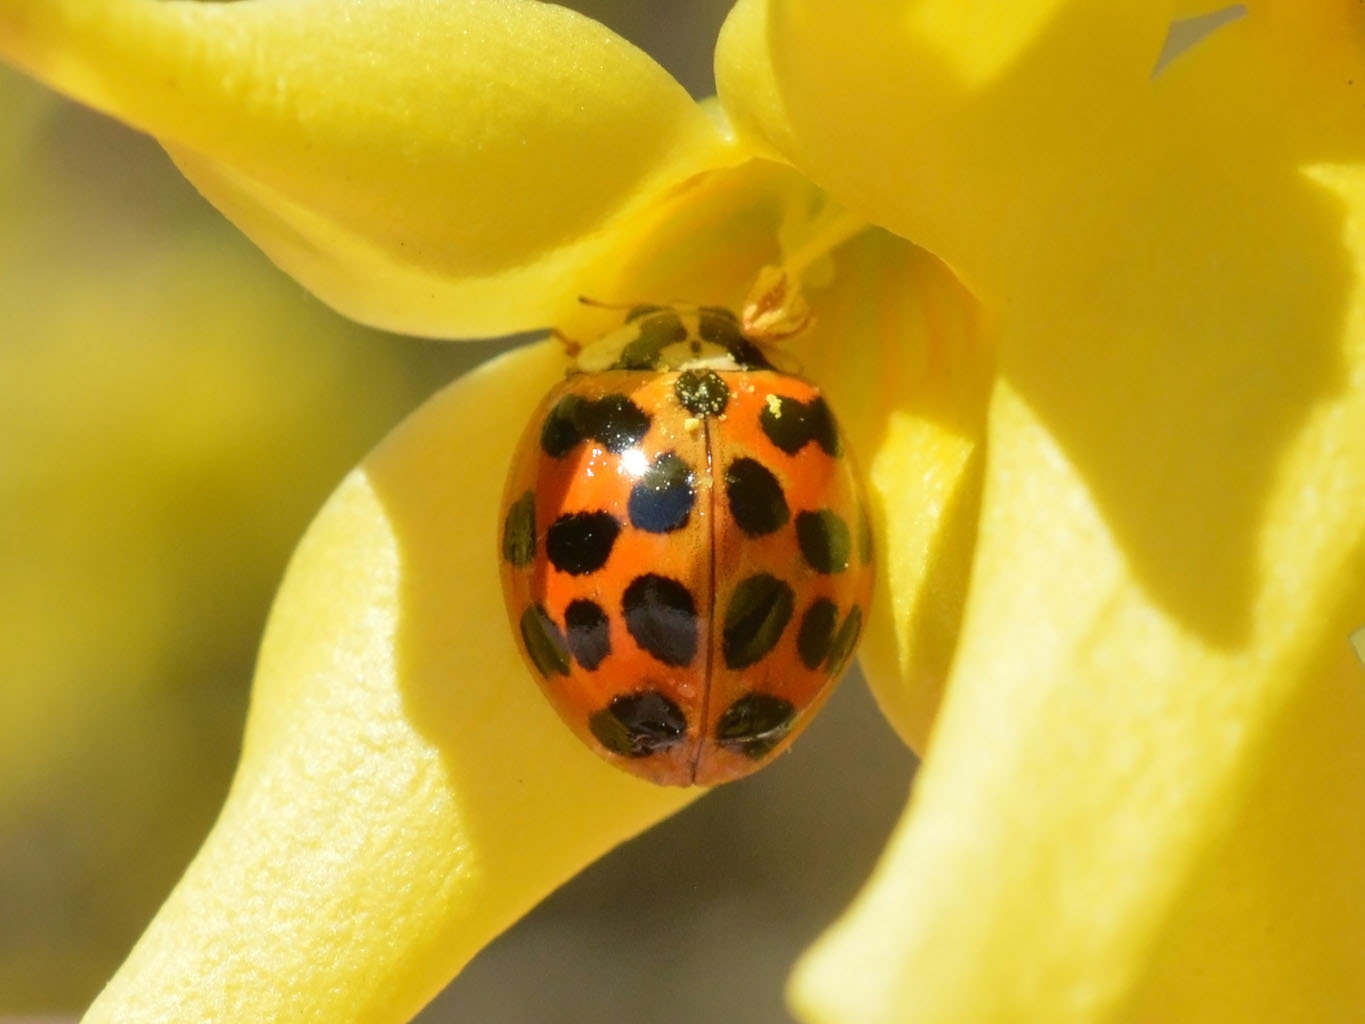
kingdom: Animalia
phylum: Arthropoda
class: Insecta
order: Coleoptera
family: Coccinellidae
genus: Harmonia
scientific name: Harmonia axyridis
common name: Harlequin ladybird
